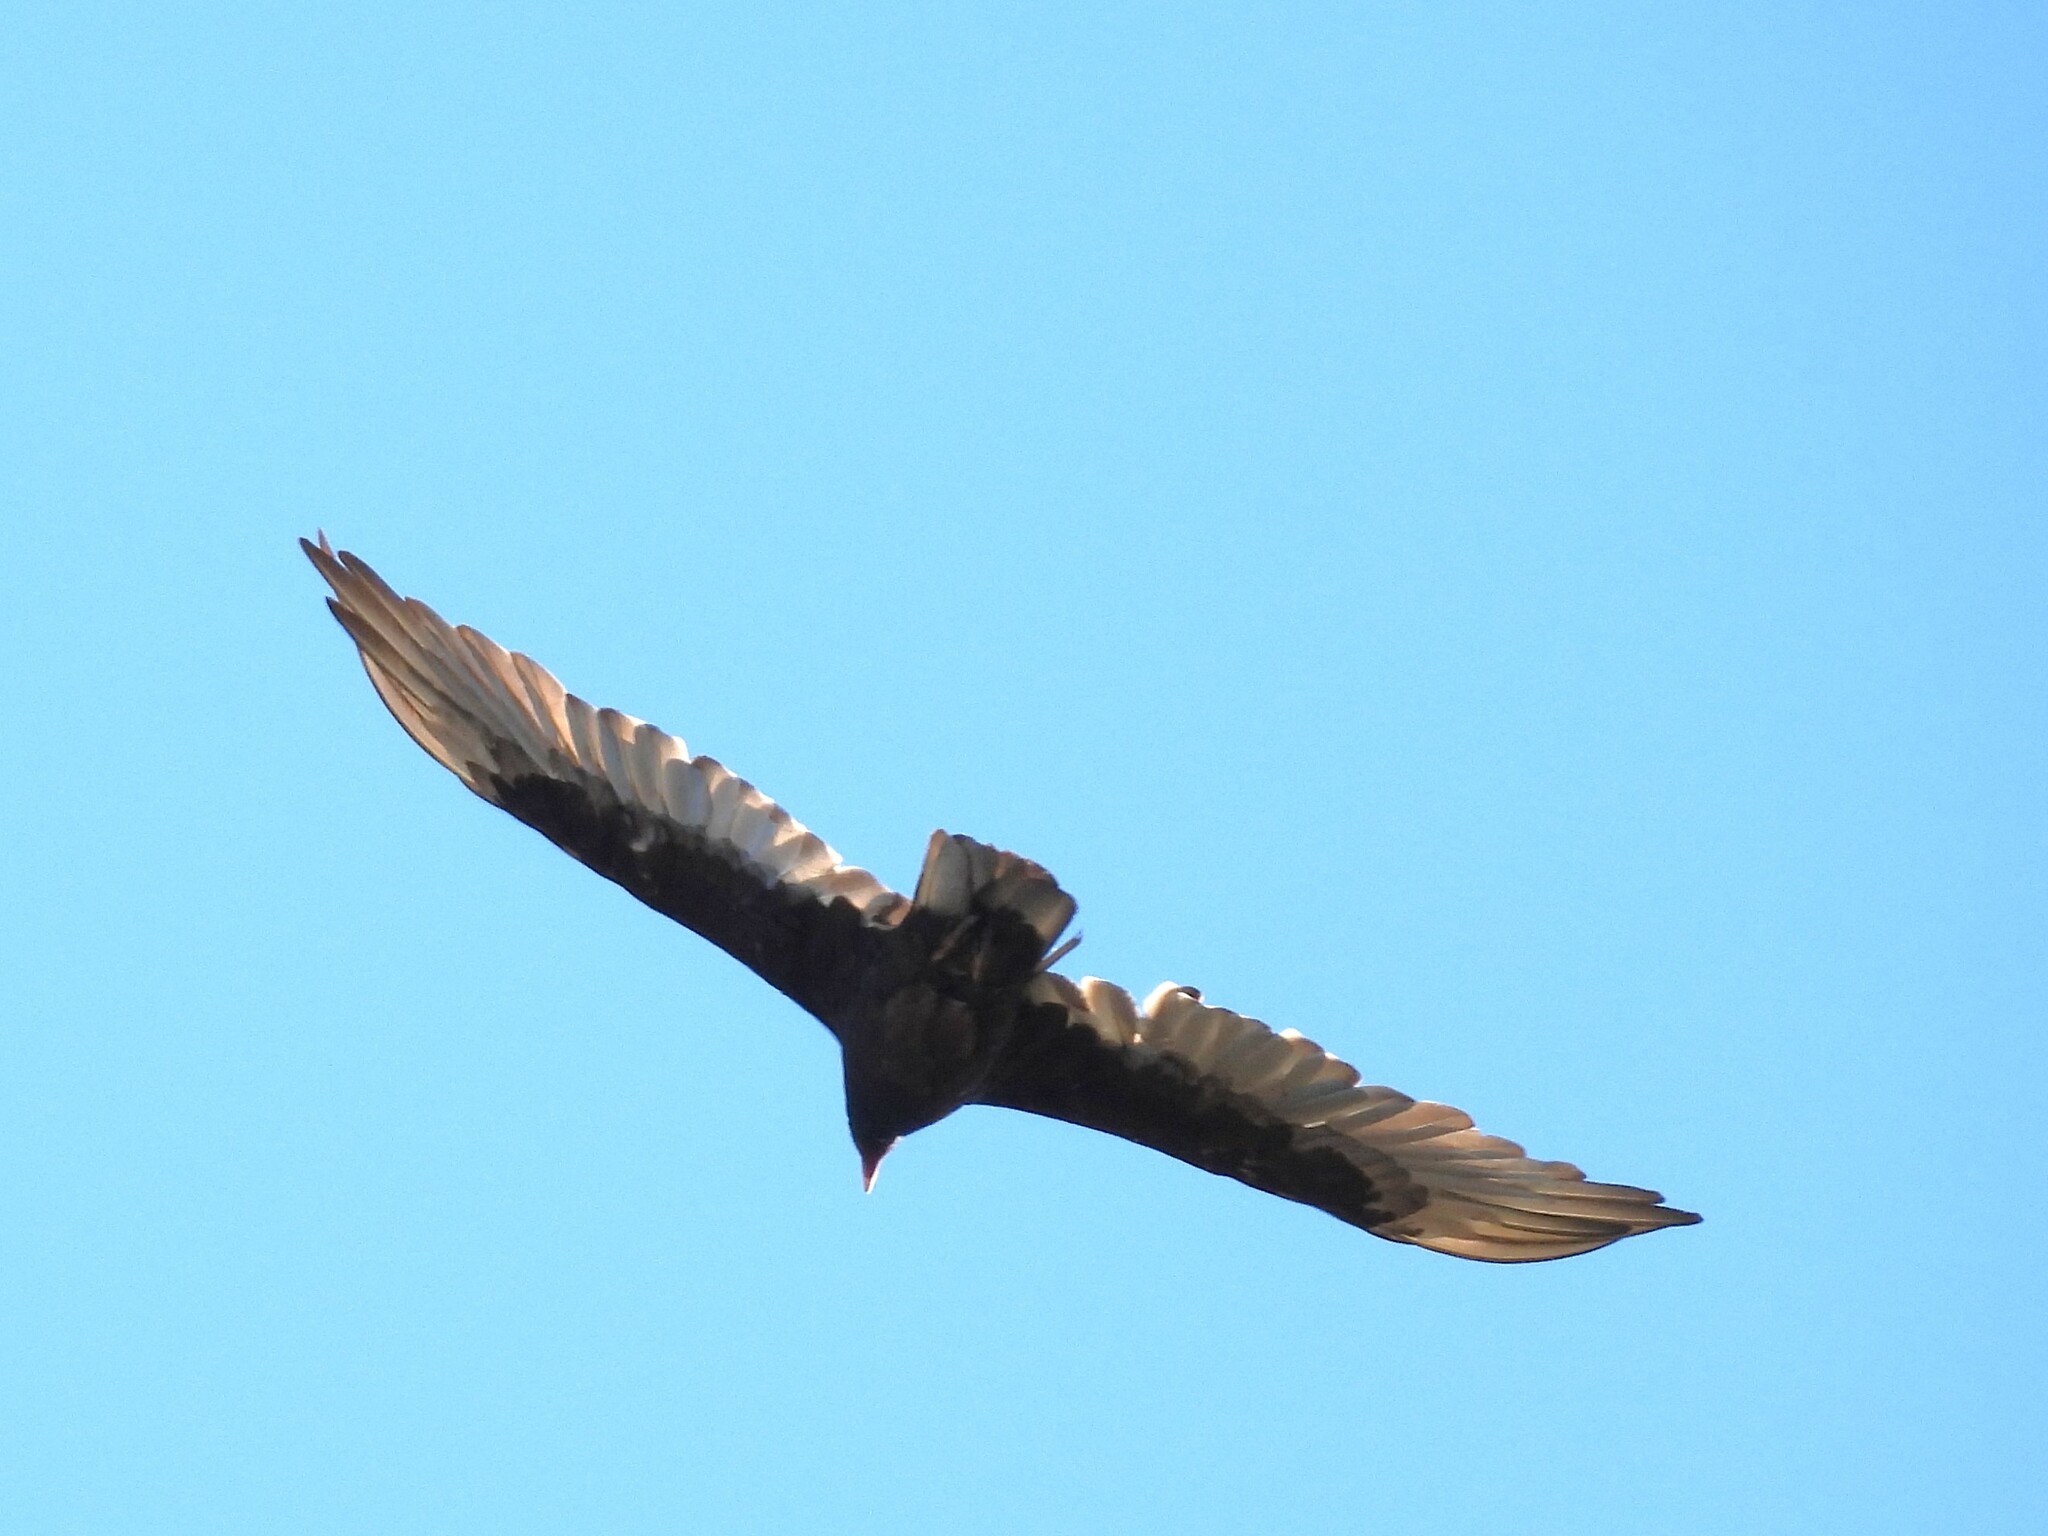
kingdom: Animalia
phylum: Chordata
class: Aves
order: Accipitriformes
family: Cathartidae
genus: Cathartes
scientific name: Cathartes aura
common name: Turkey vulture
